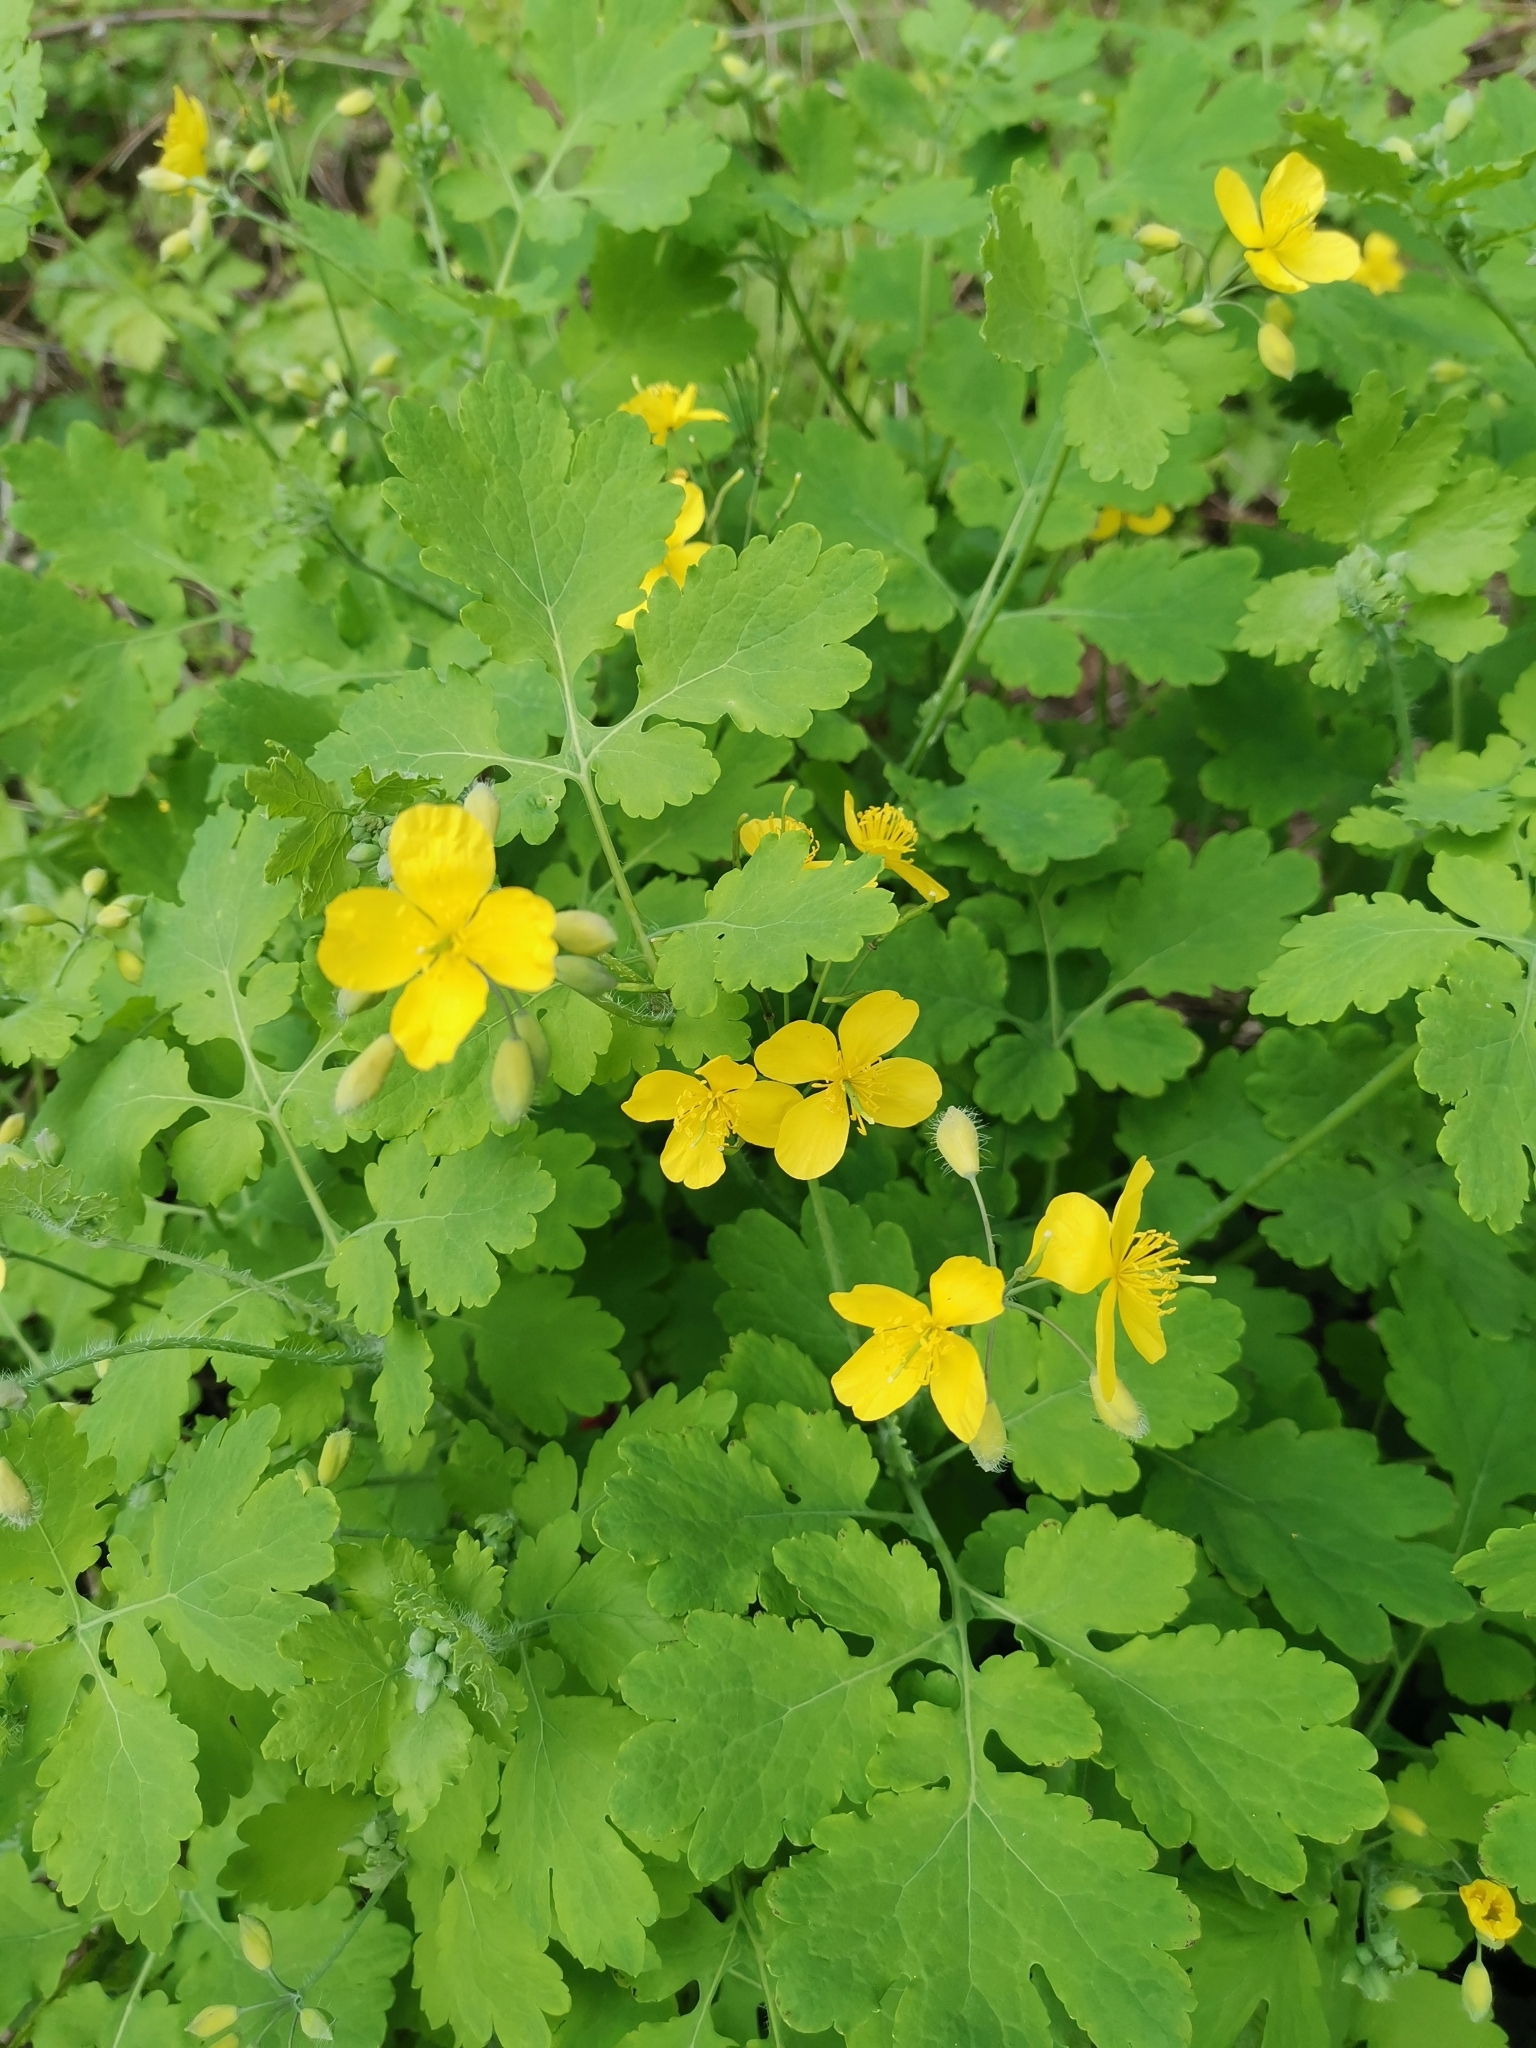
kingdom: Plantae
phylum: Tracheophyta
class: Magnoliopsida
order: Ranunculales
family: Papaveraceae
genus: Chelidonium
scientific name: Chelidonium majus
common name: Greater celandine
